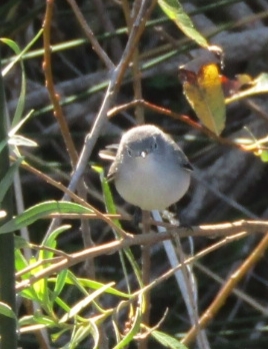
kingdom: Animalia
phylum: Chordata
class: Aves
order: Passeriformes
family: Polioptilidae
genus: Polioptila
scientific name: Polioptila caerulea
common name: Blue-gray gnatcatcher
